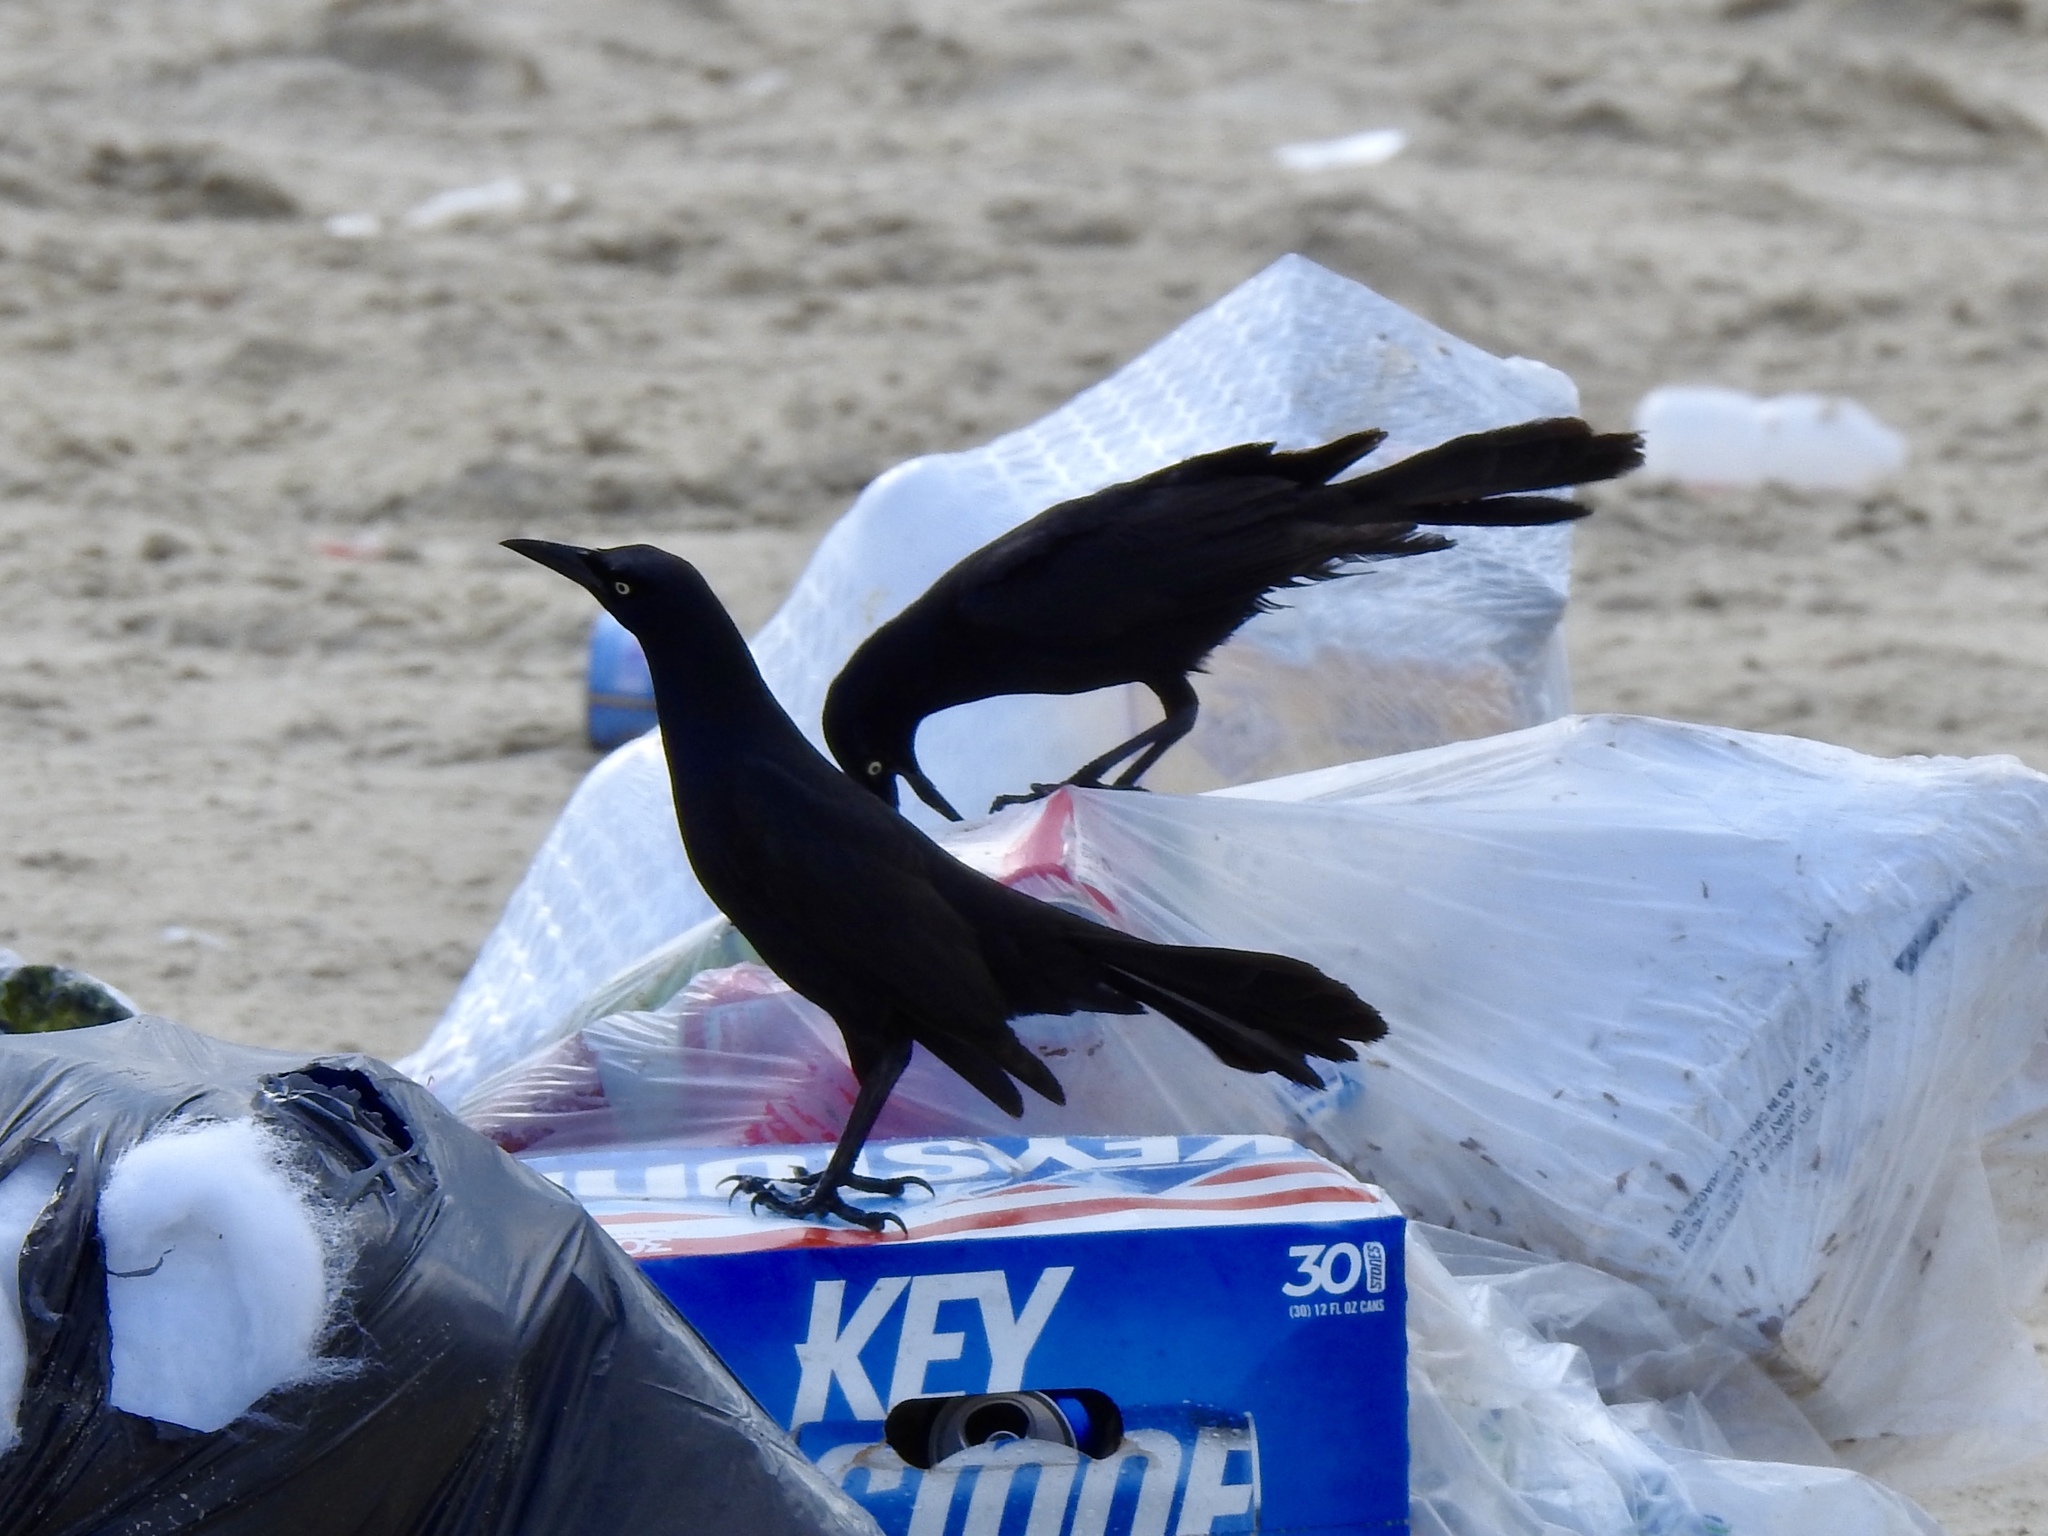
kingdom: Animalia
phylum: Chordata
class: Aves
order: Passeriformes
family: Icteridae
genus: Quiscalus
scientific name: Quiscalus mexicanus
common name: Great-tailed grackle
